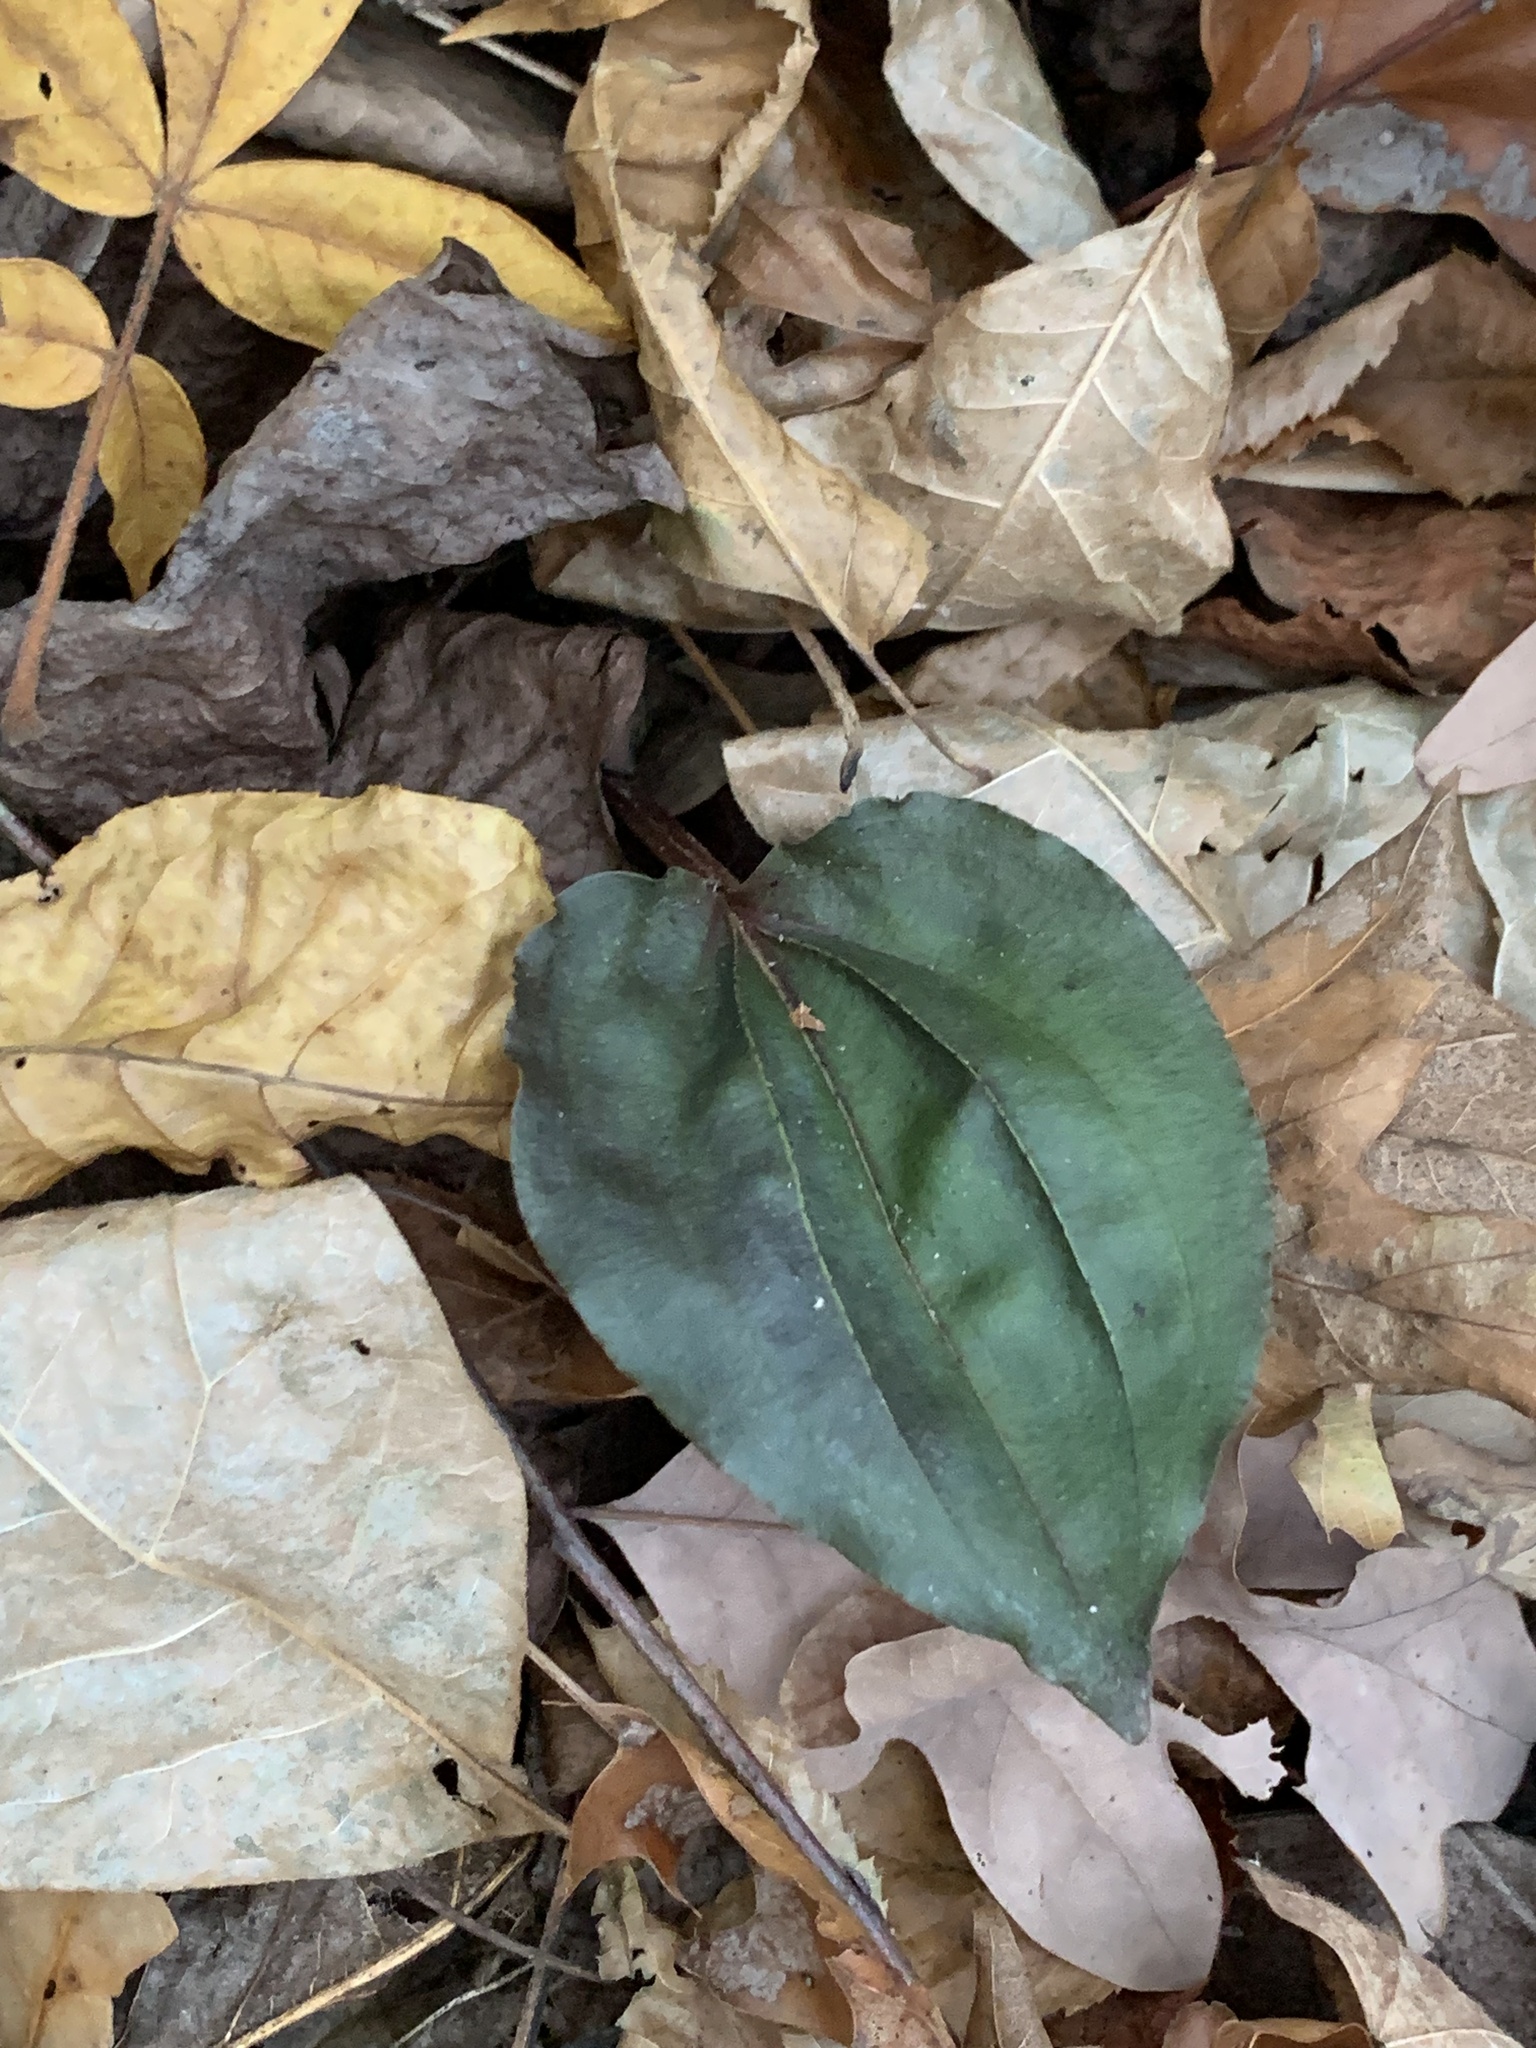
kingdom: Plantae
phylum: Tracheophyta
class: Liliopsida
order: Asparagales
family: Orchidaceae
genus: Tipularia
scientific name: Tipularia discolor
